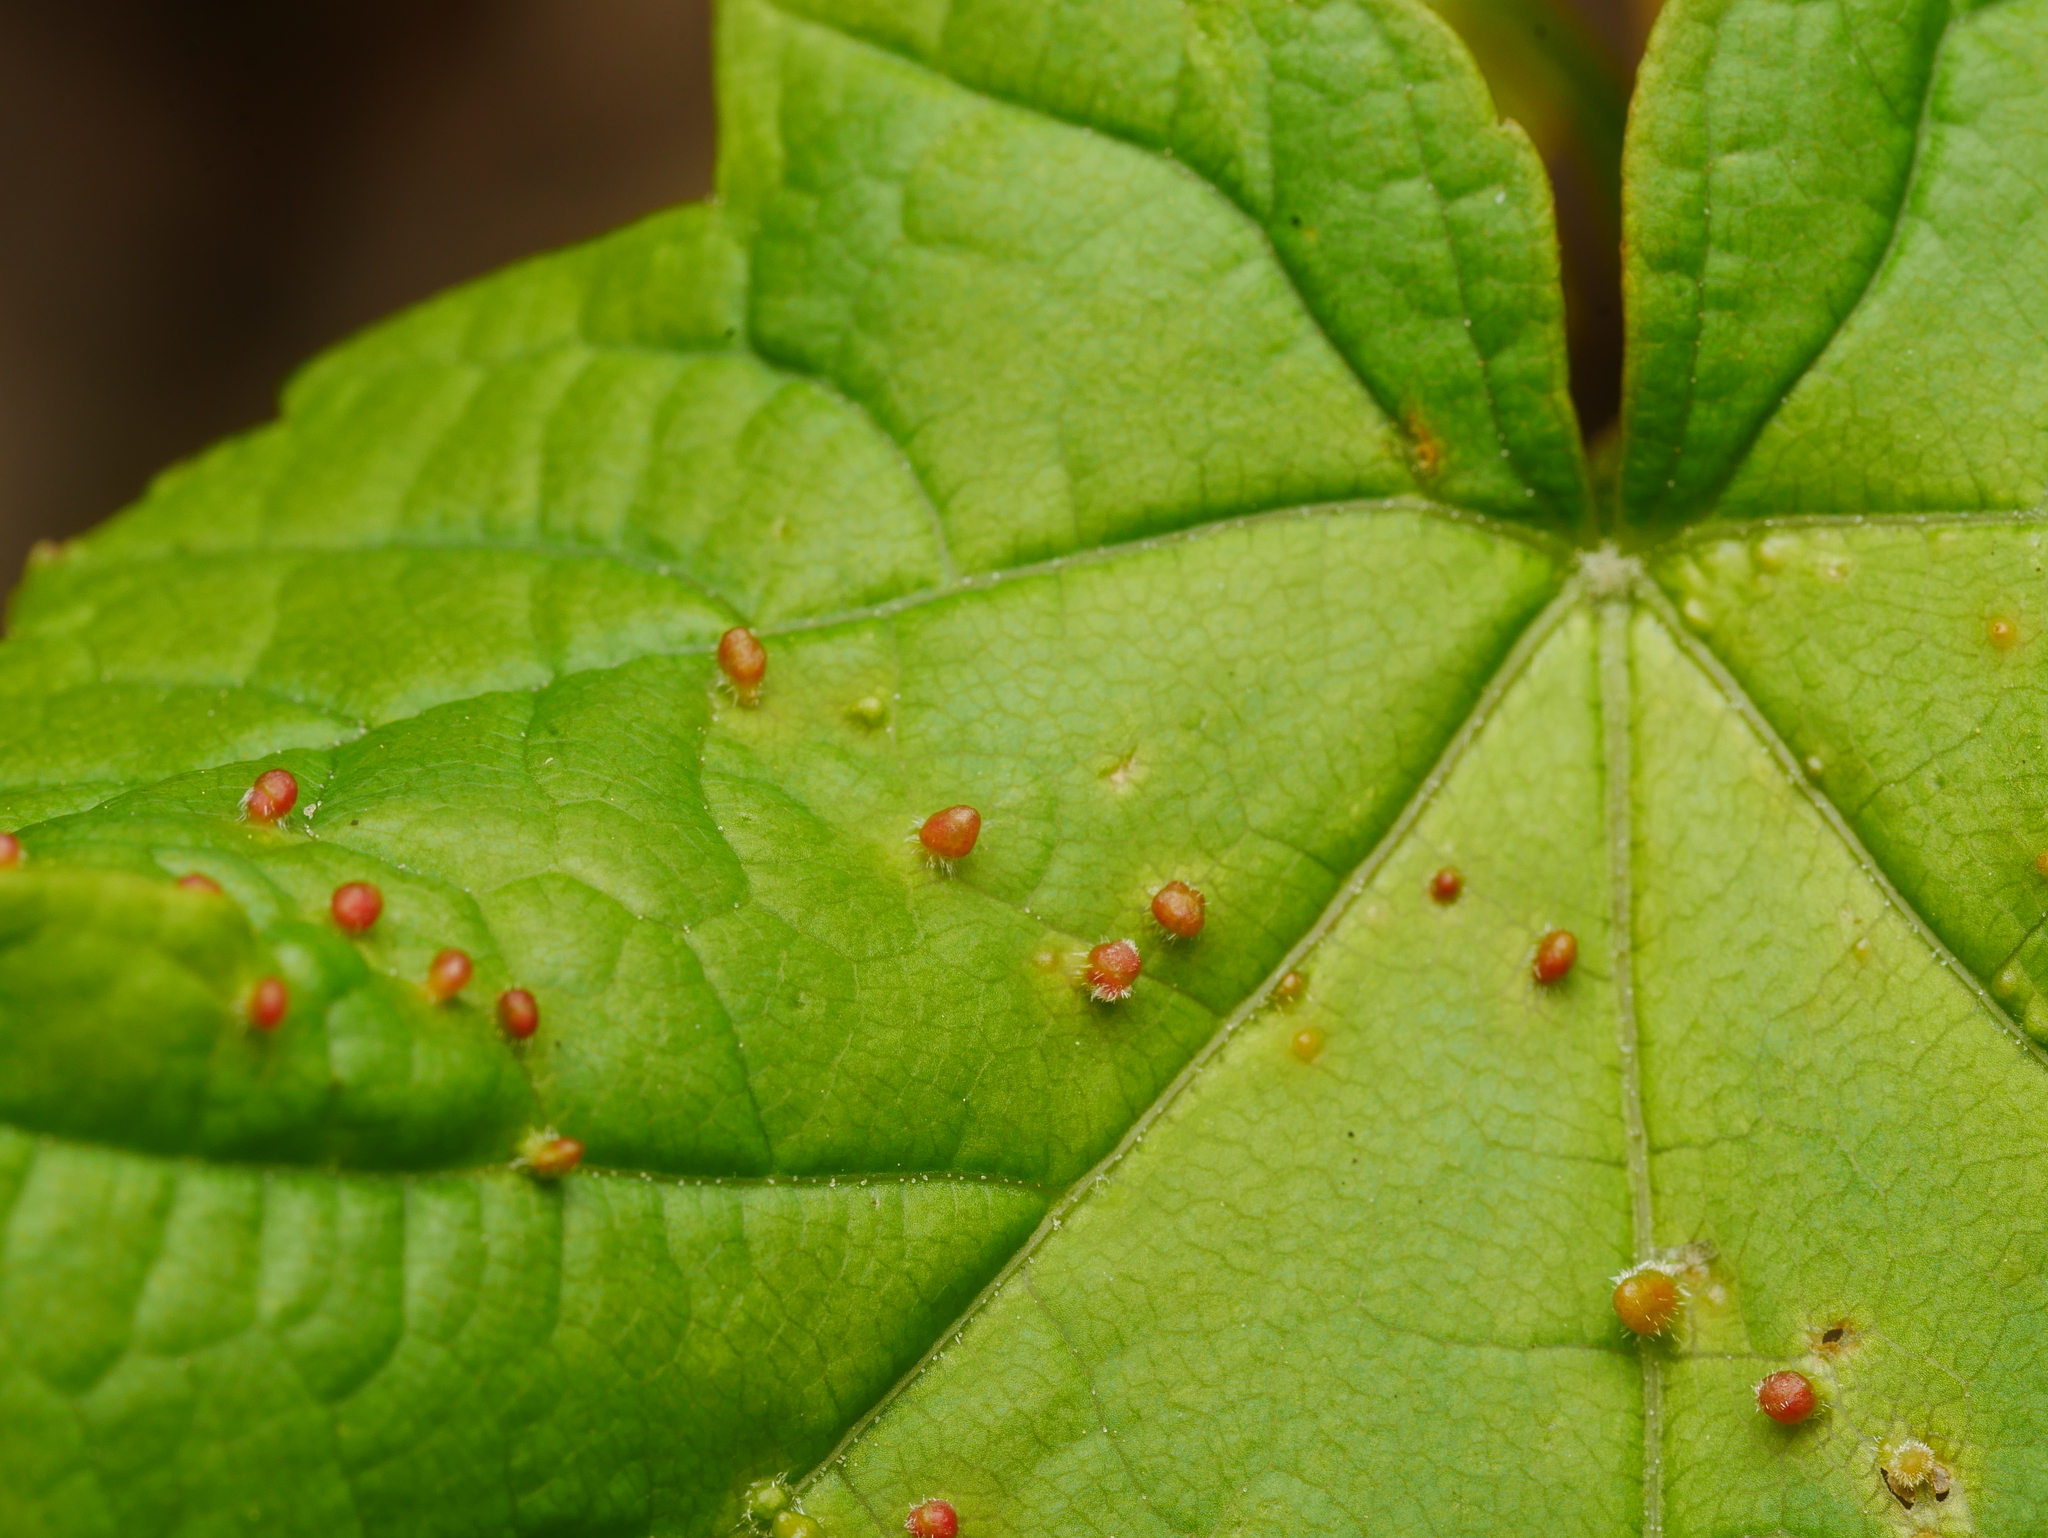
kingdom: Animalia
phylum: Arthropoda
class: Arachnida
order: Trombidiformes
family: Eriophyidae
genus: Aceria
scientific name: Aceria cephaloneus
